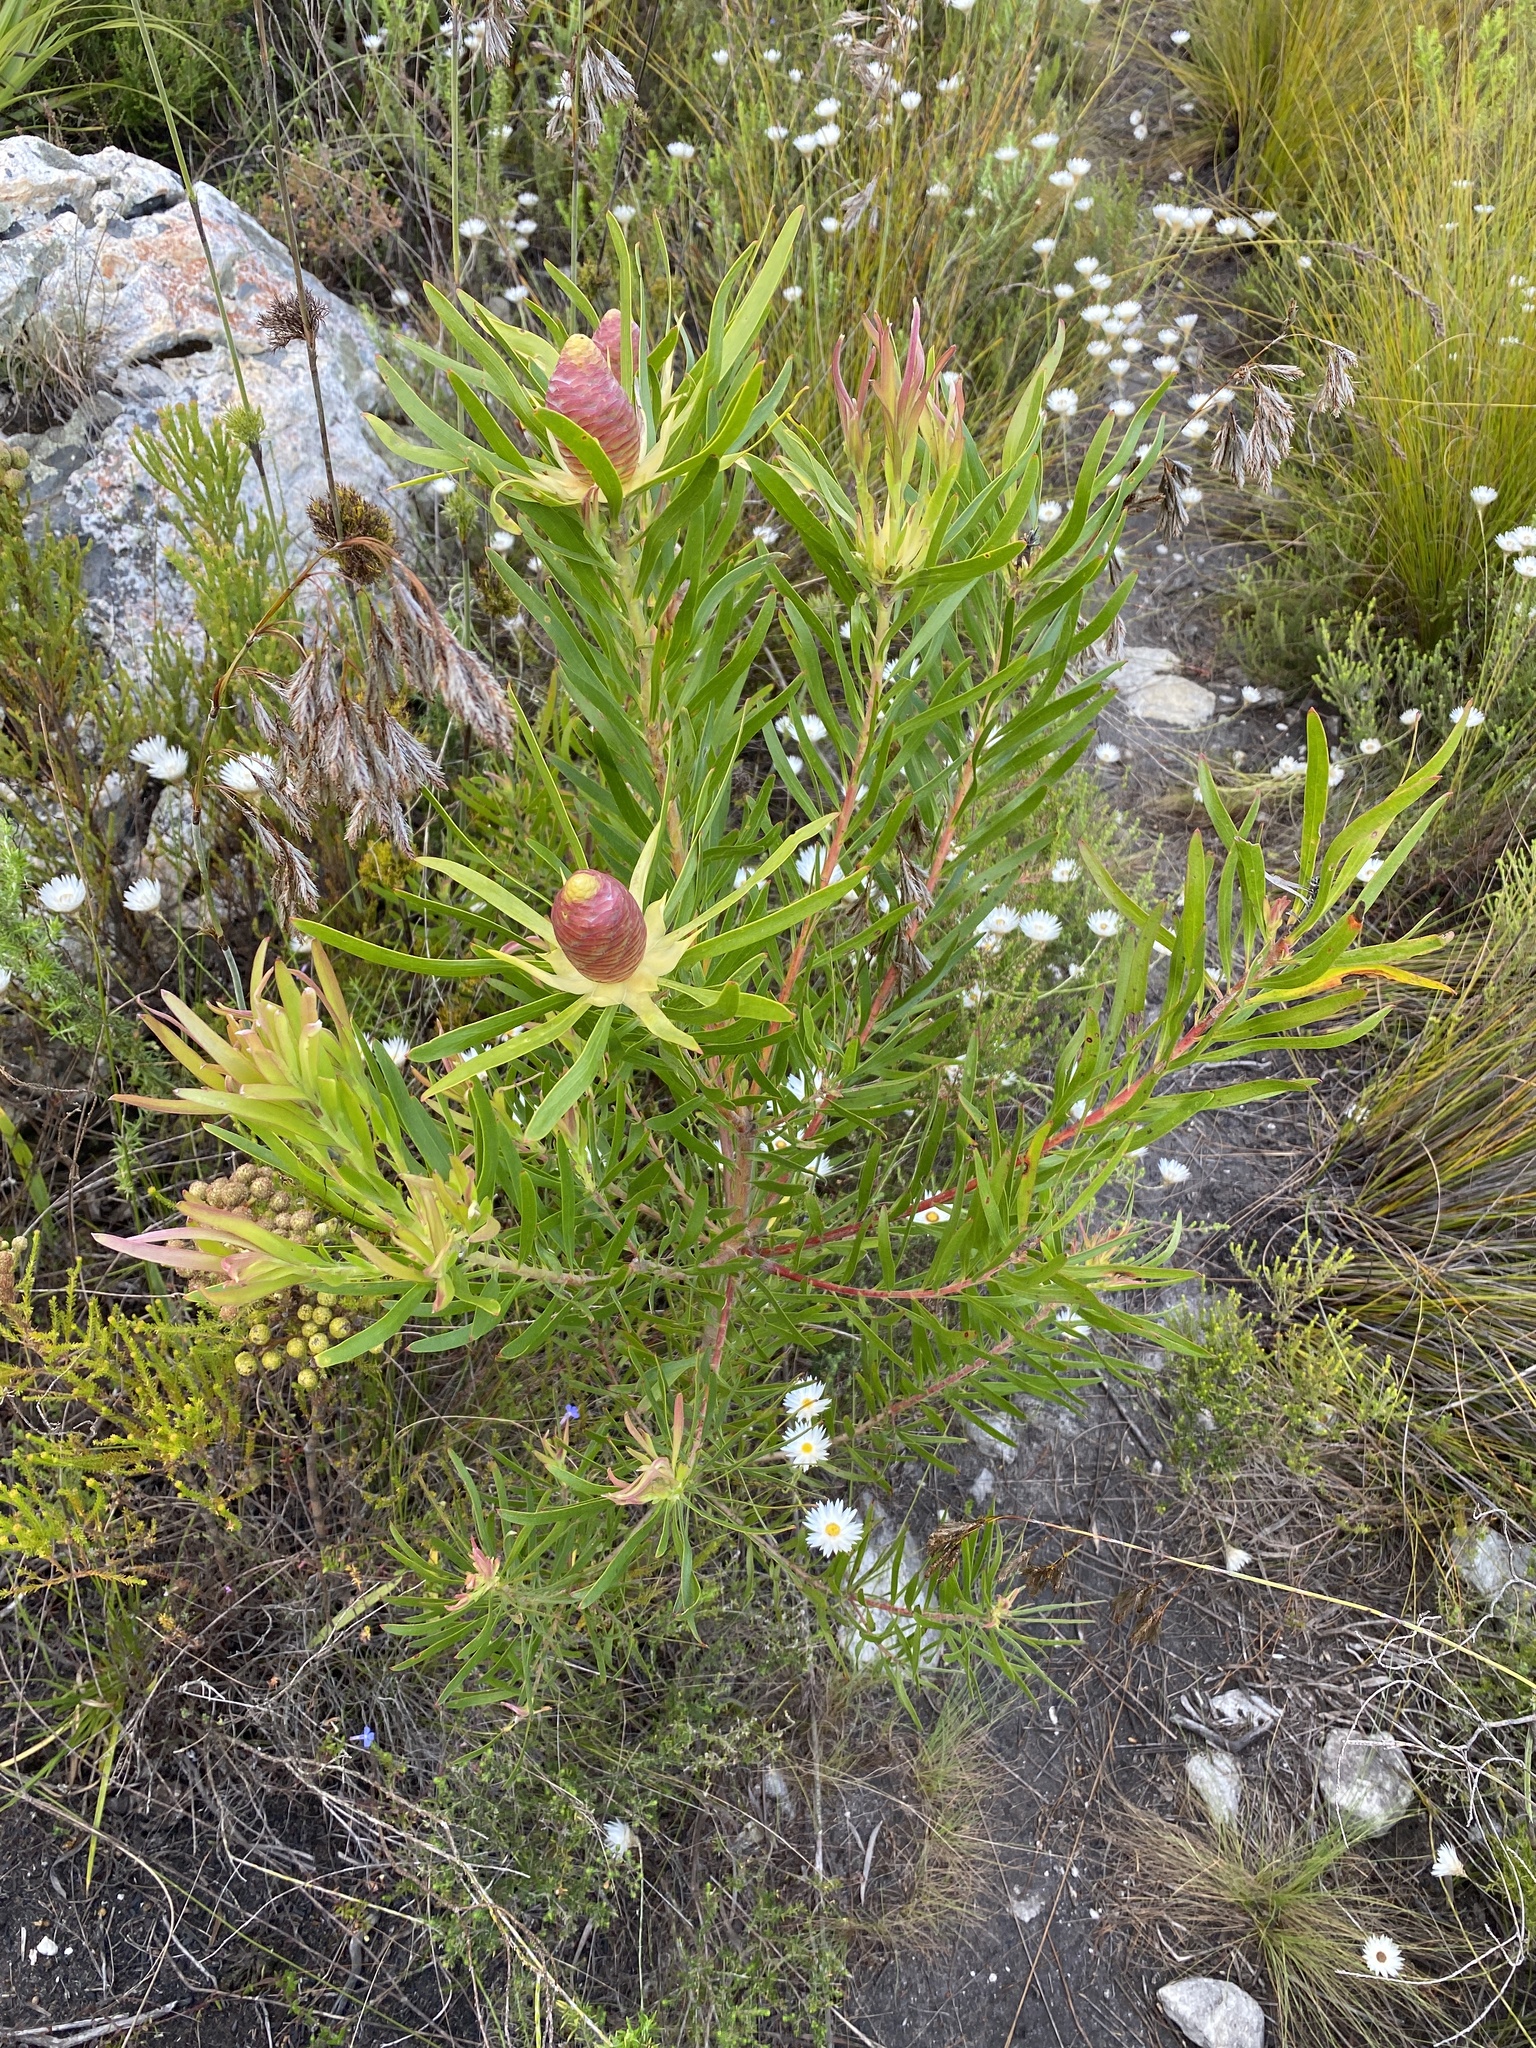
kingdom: Plantae
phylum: Tracheophyta
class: Magnoliopsida
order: Proteales
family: Proteaceae
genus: Leucadendron
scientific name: Leucadendron eucalyptifolium
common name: Gum-leaved conebush
